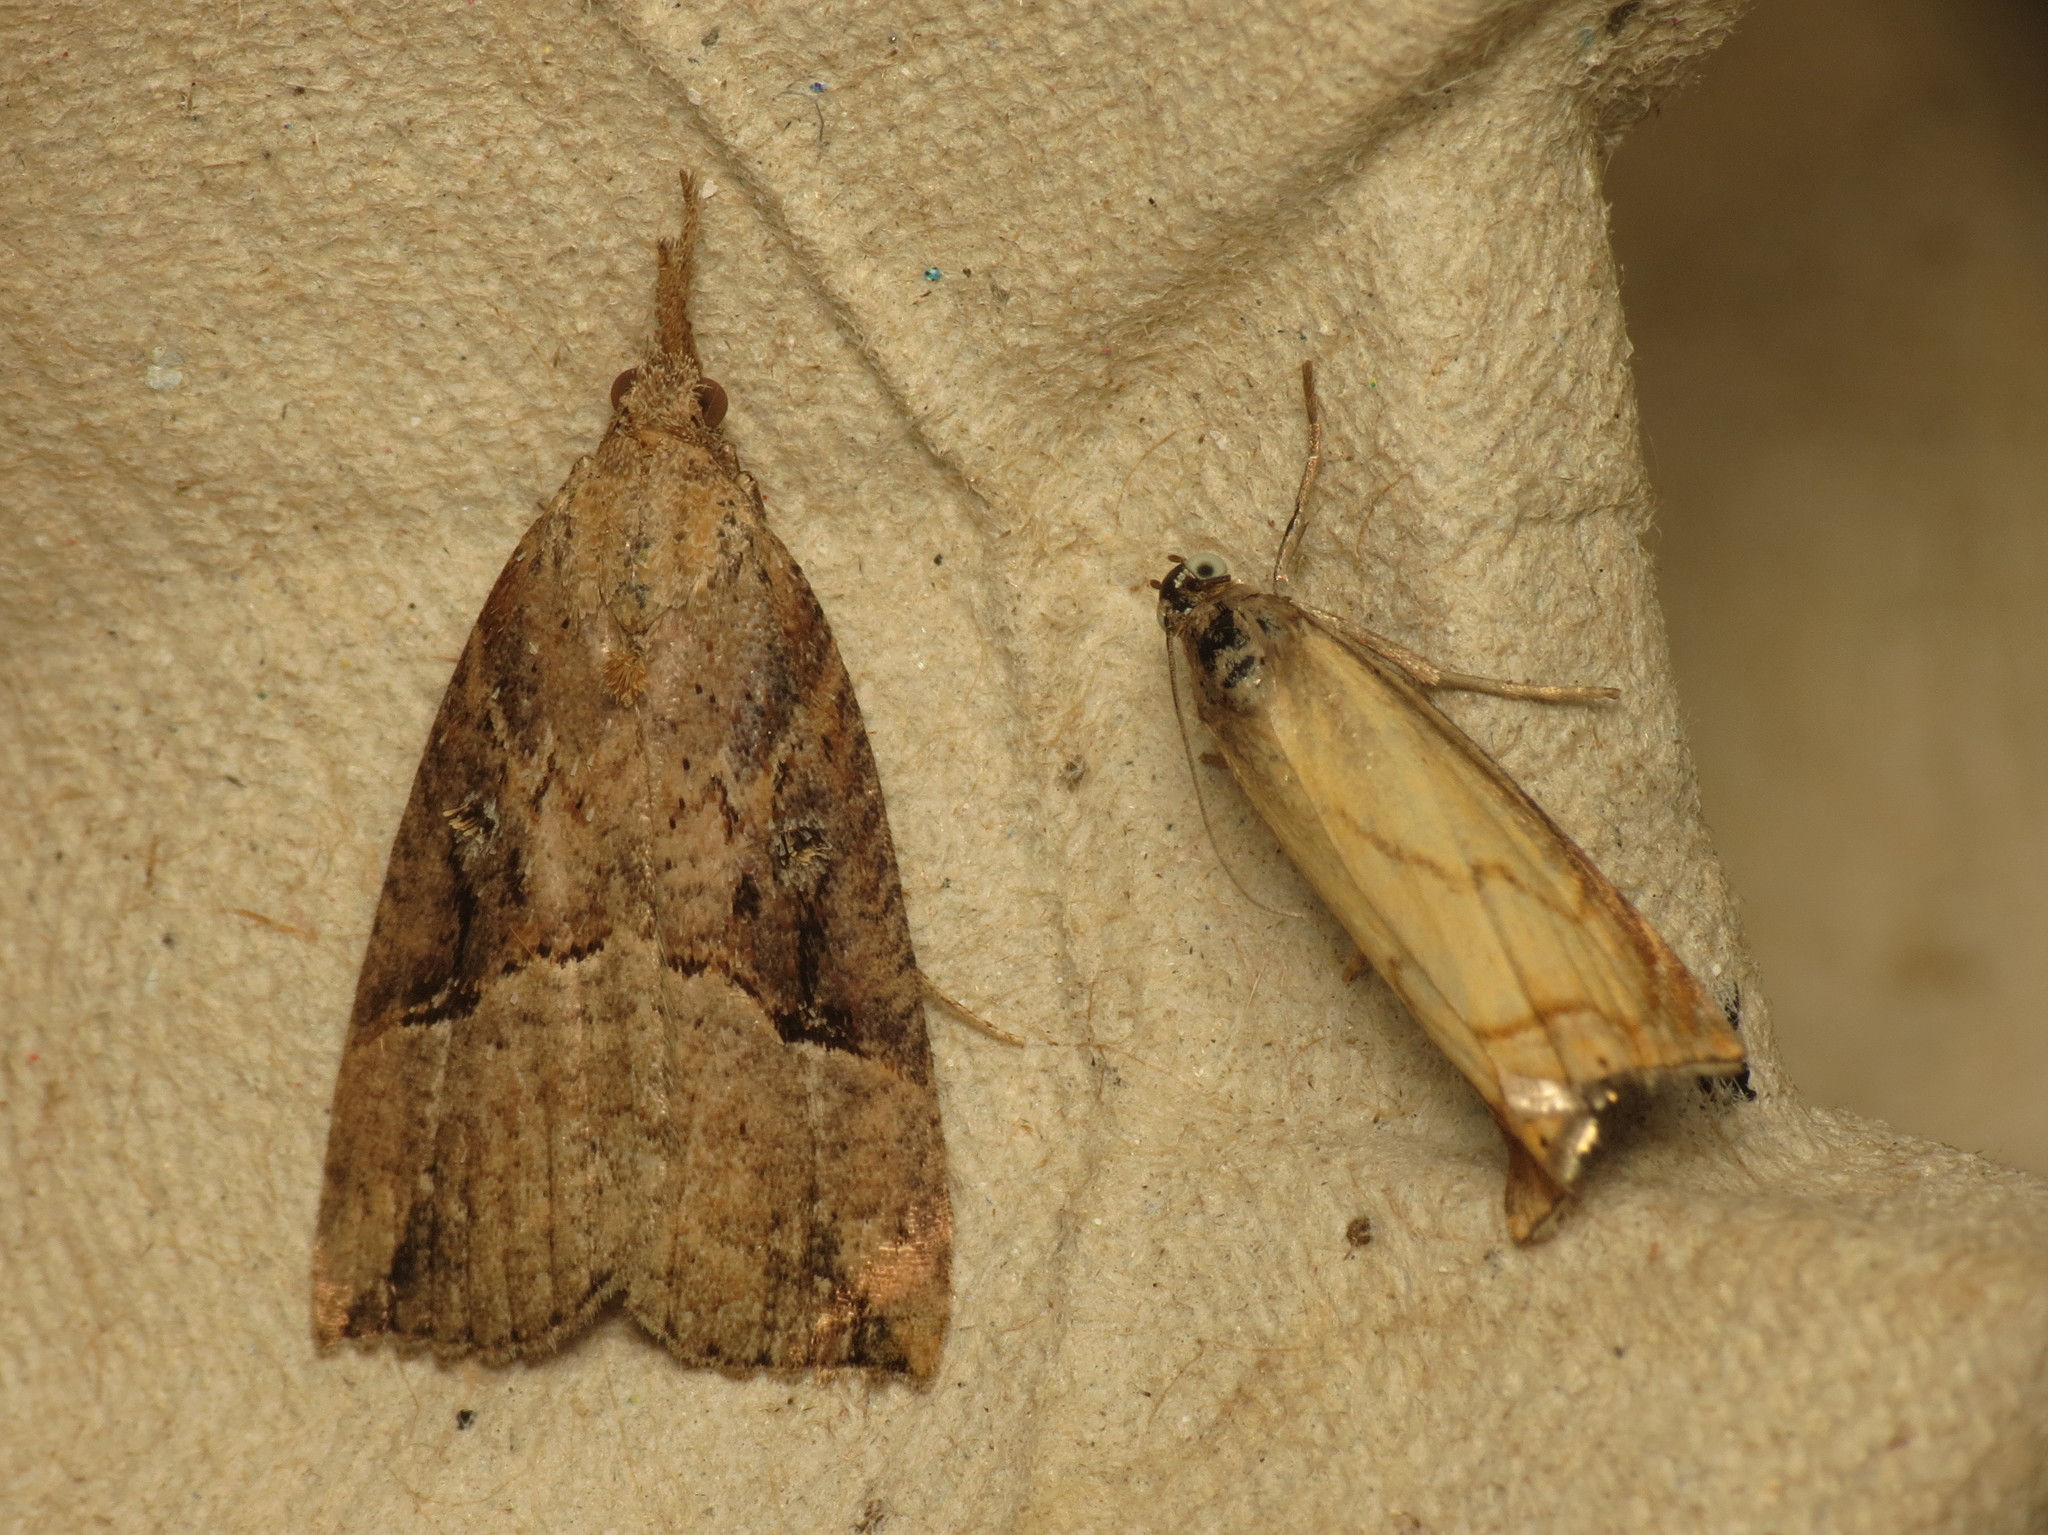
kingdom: Animalia
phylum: Arthropoda
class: Insecta
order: Lepidoptera
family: Erebidae
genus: Hypena
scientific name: Hypena rostralis
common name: Buttoned snout
